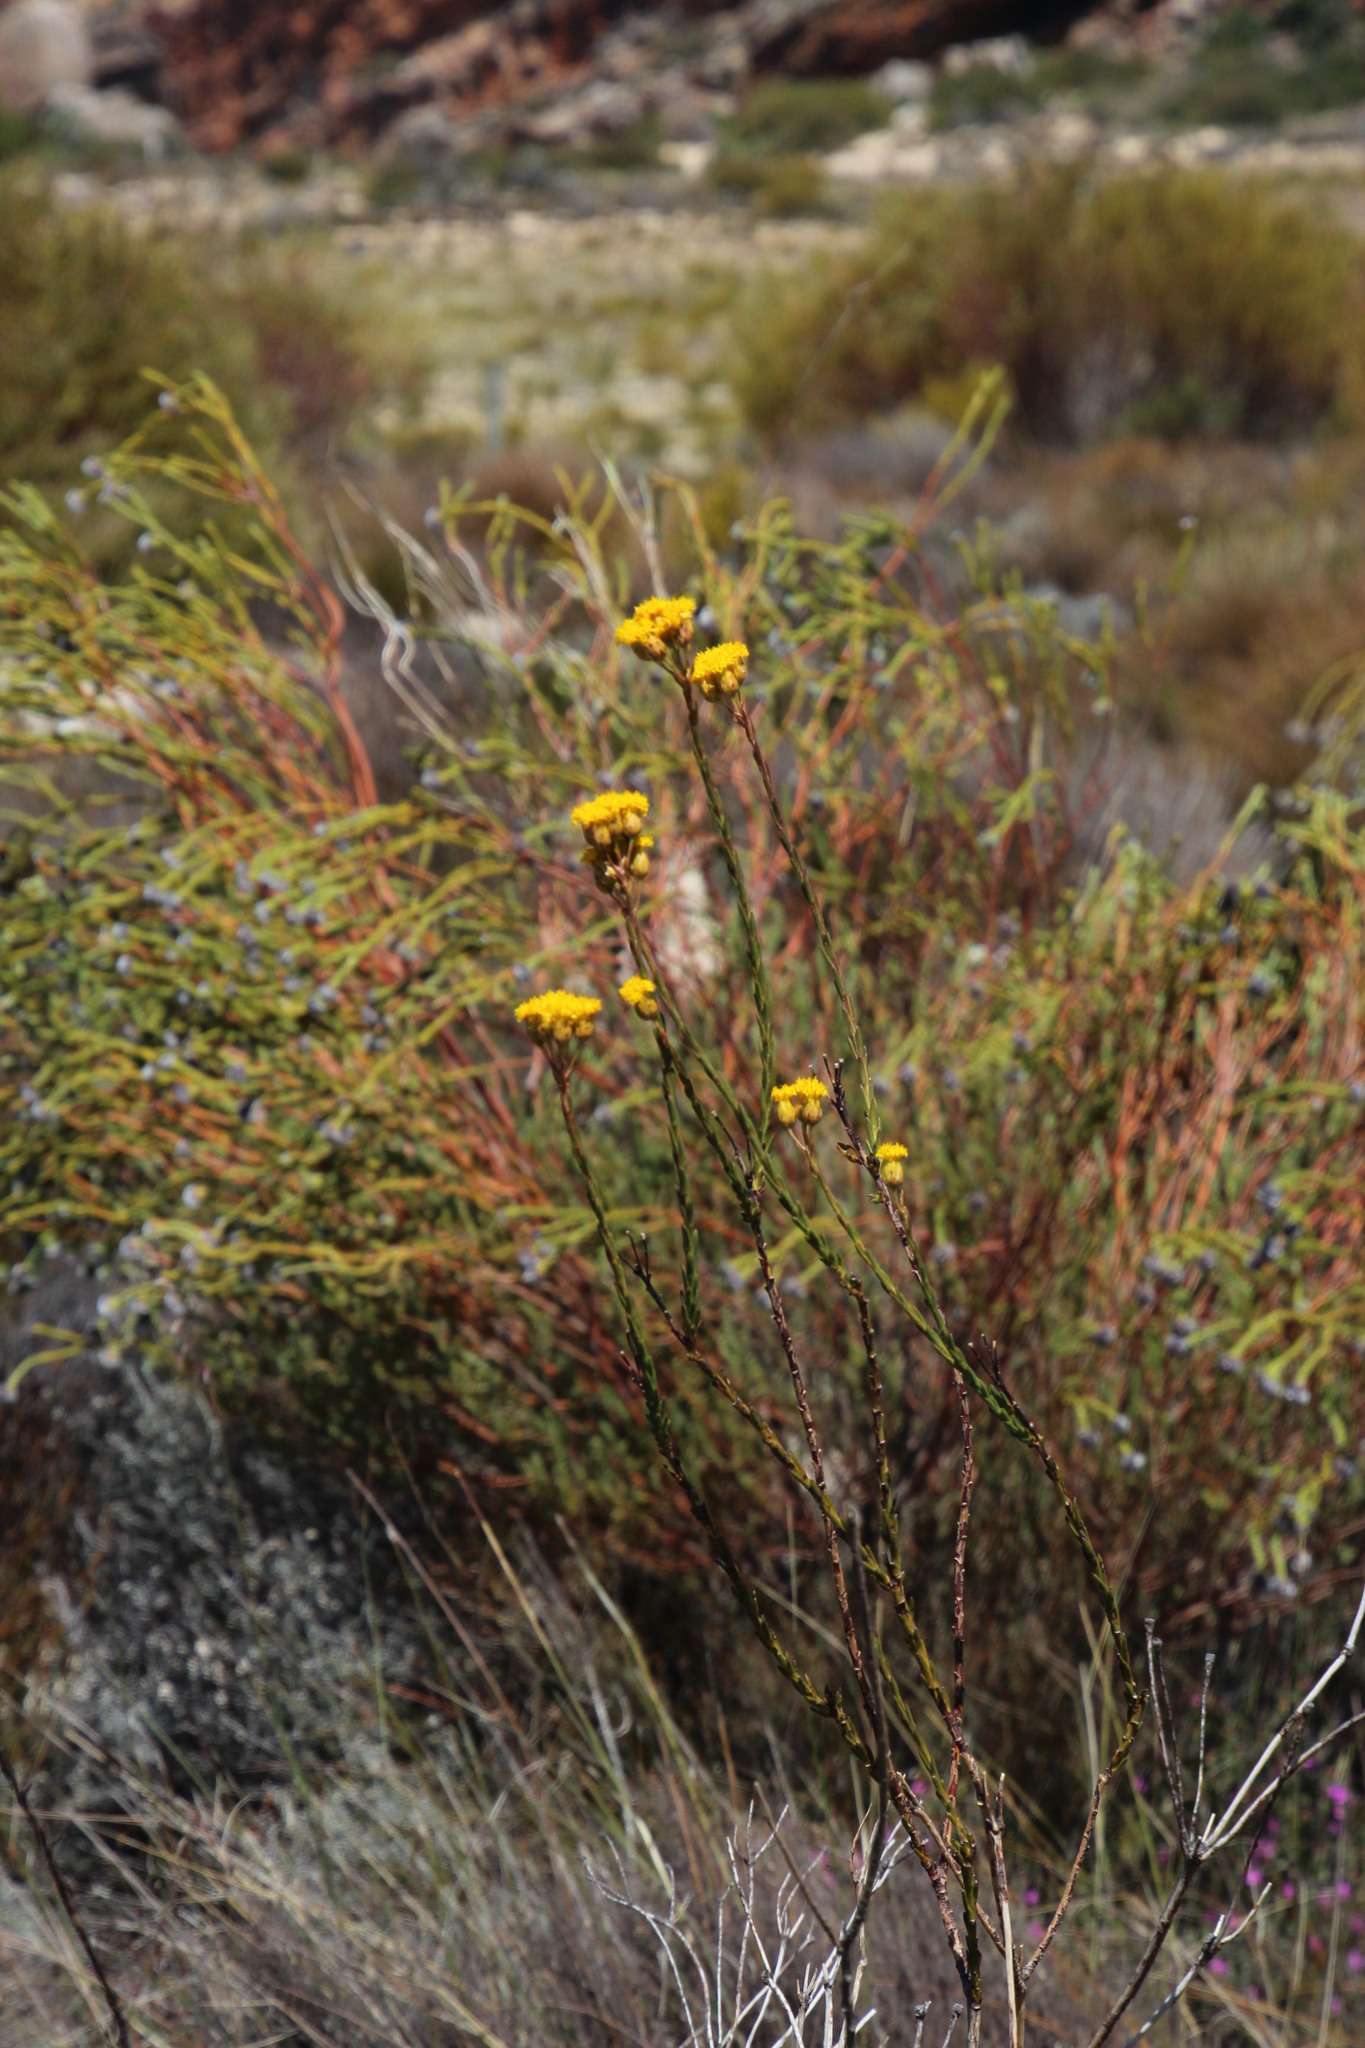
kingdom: Plantae
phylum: Tracheophyta
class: Magnoliopsida
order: Asterales
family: Asteraceae
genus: Athanasia
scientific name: Athanasia linifolia
